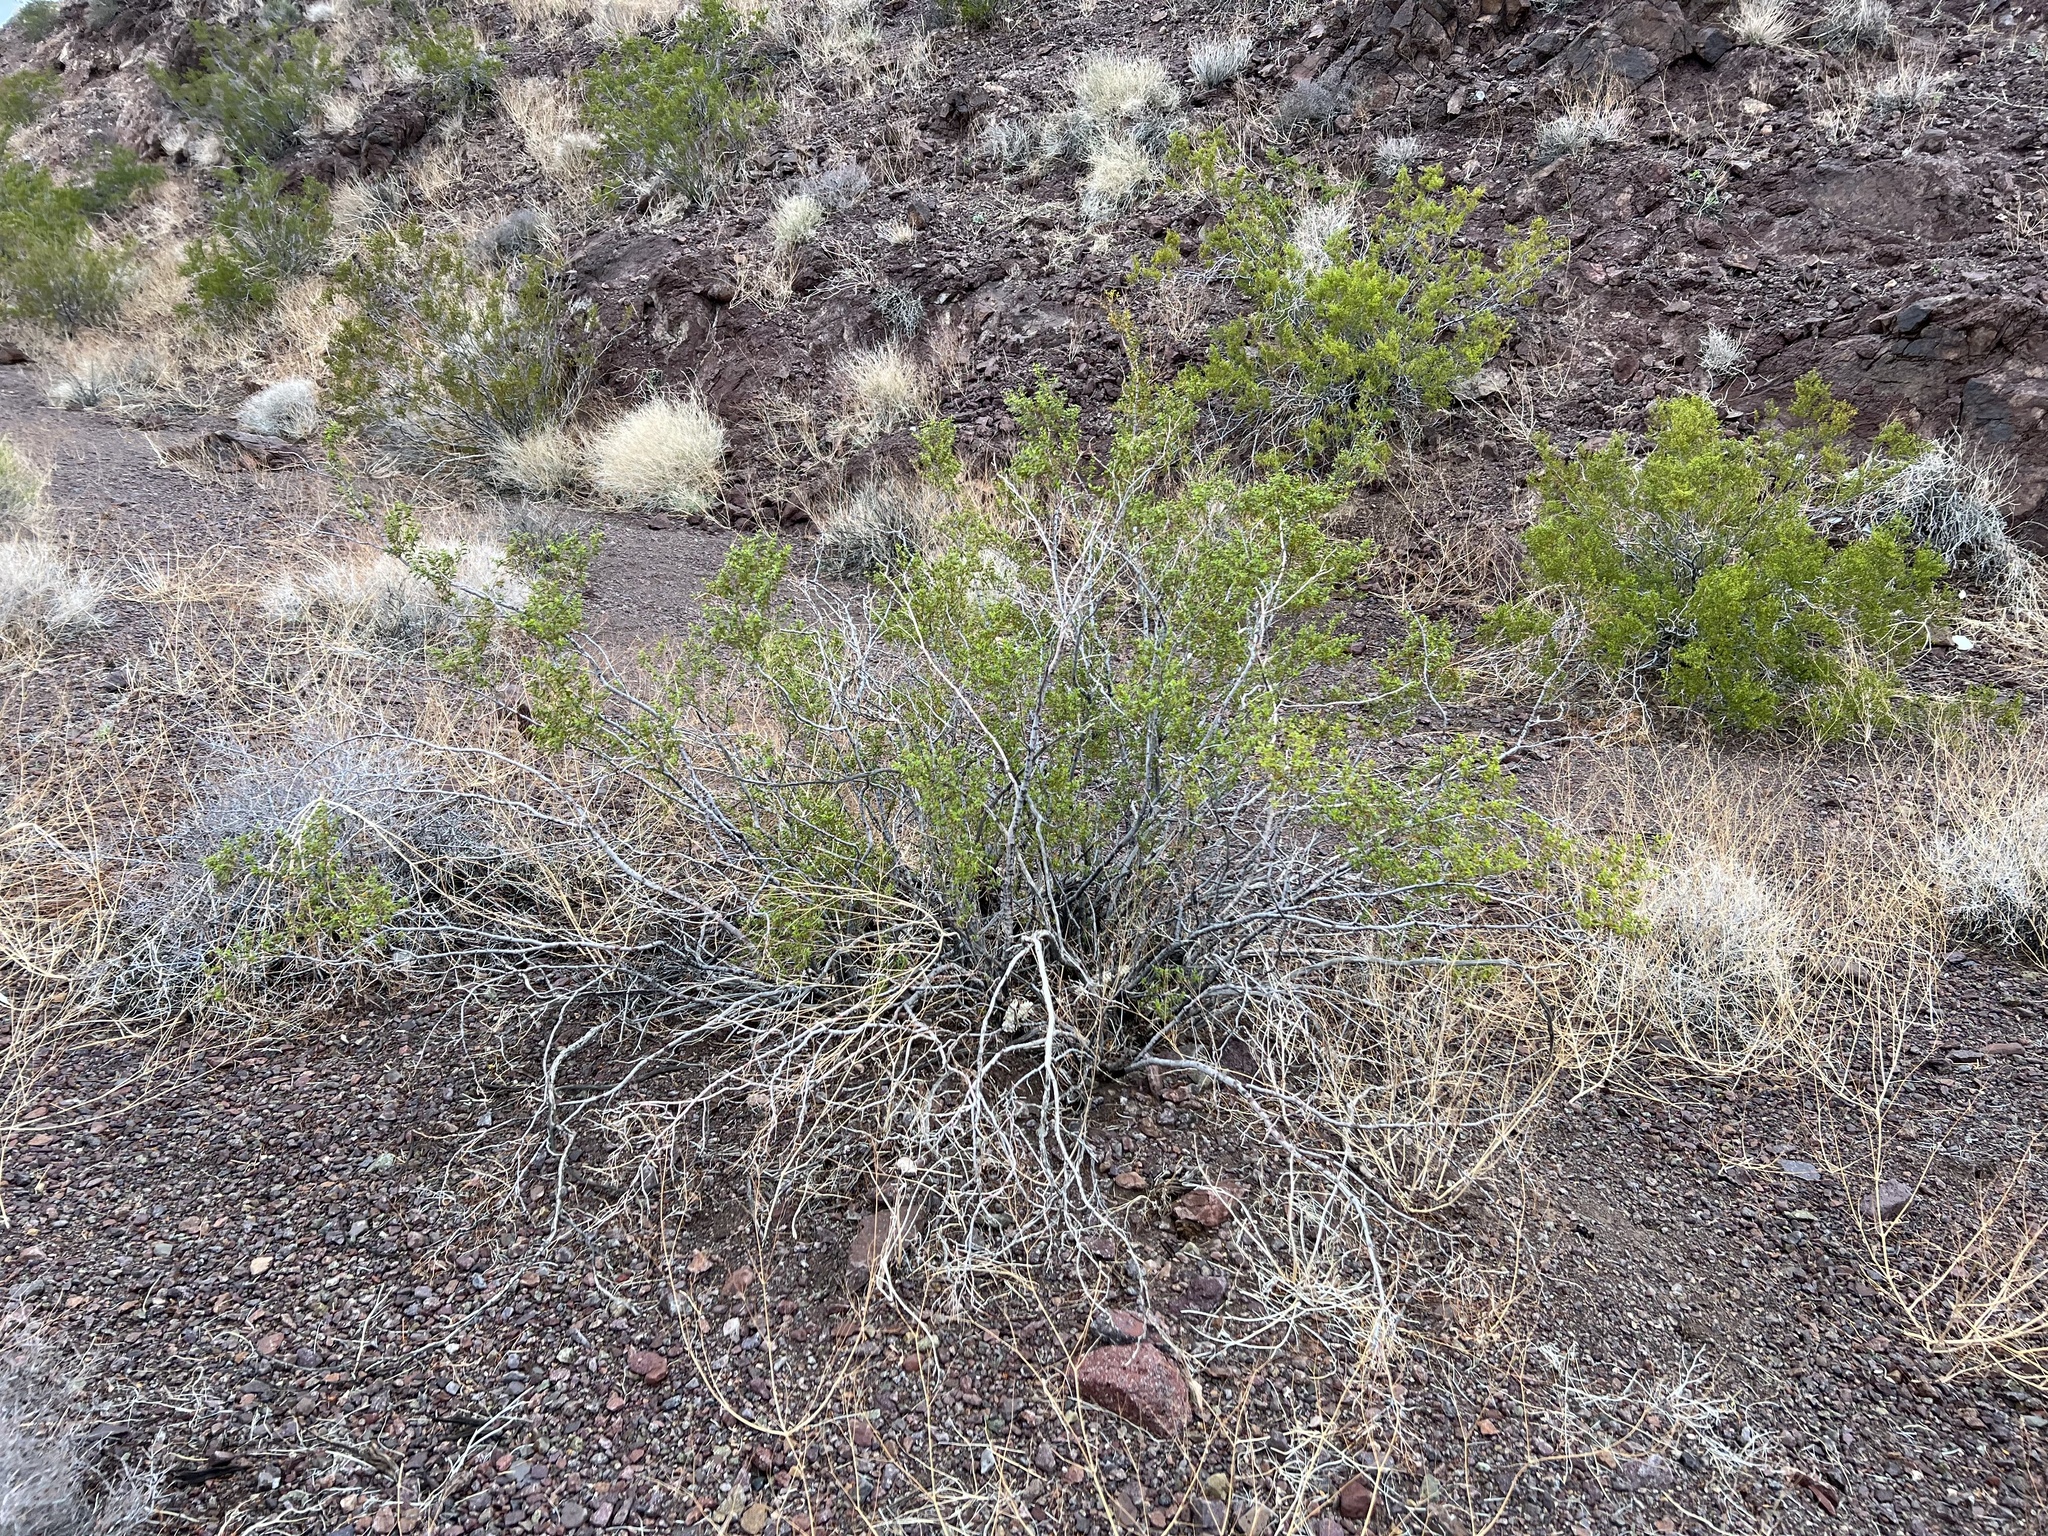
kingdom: Plantae
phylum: Tracheophyta
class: Magnoliopsida
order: Zygophyllales
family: Zygophyllaceae
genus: Larrea
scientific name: Larrea tridentata
